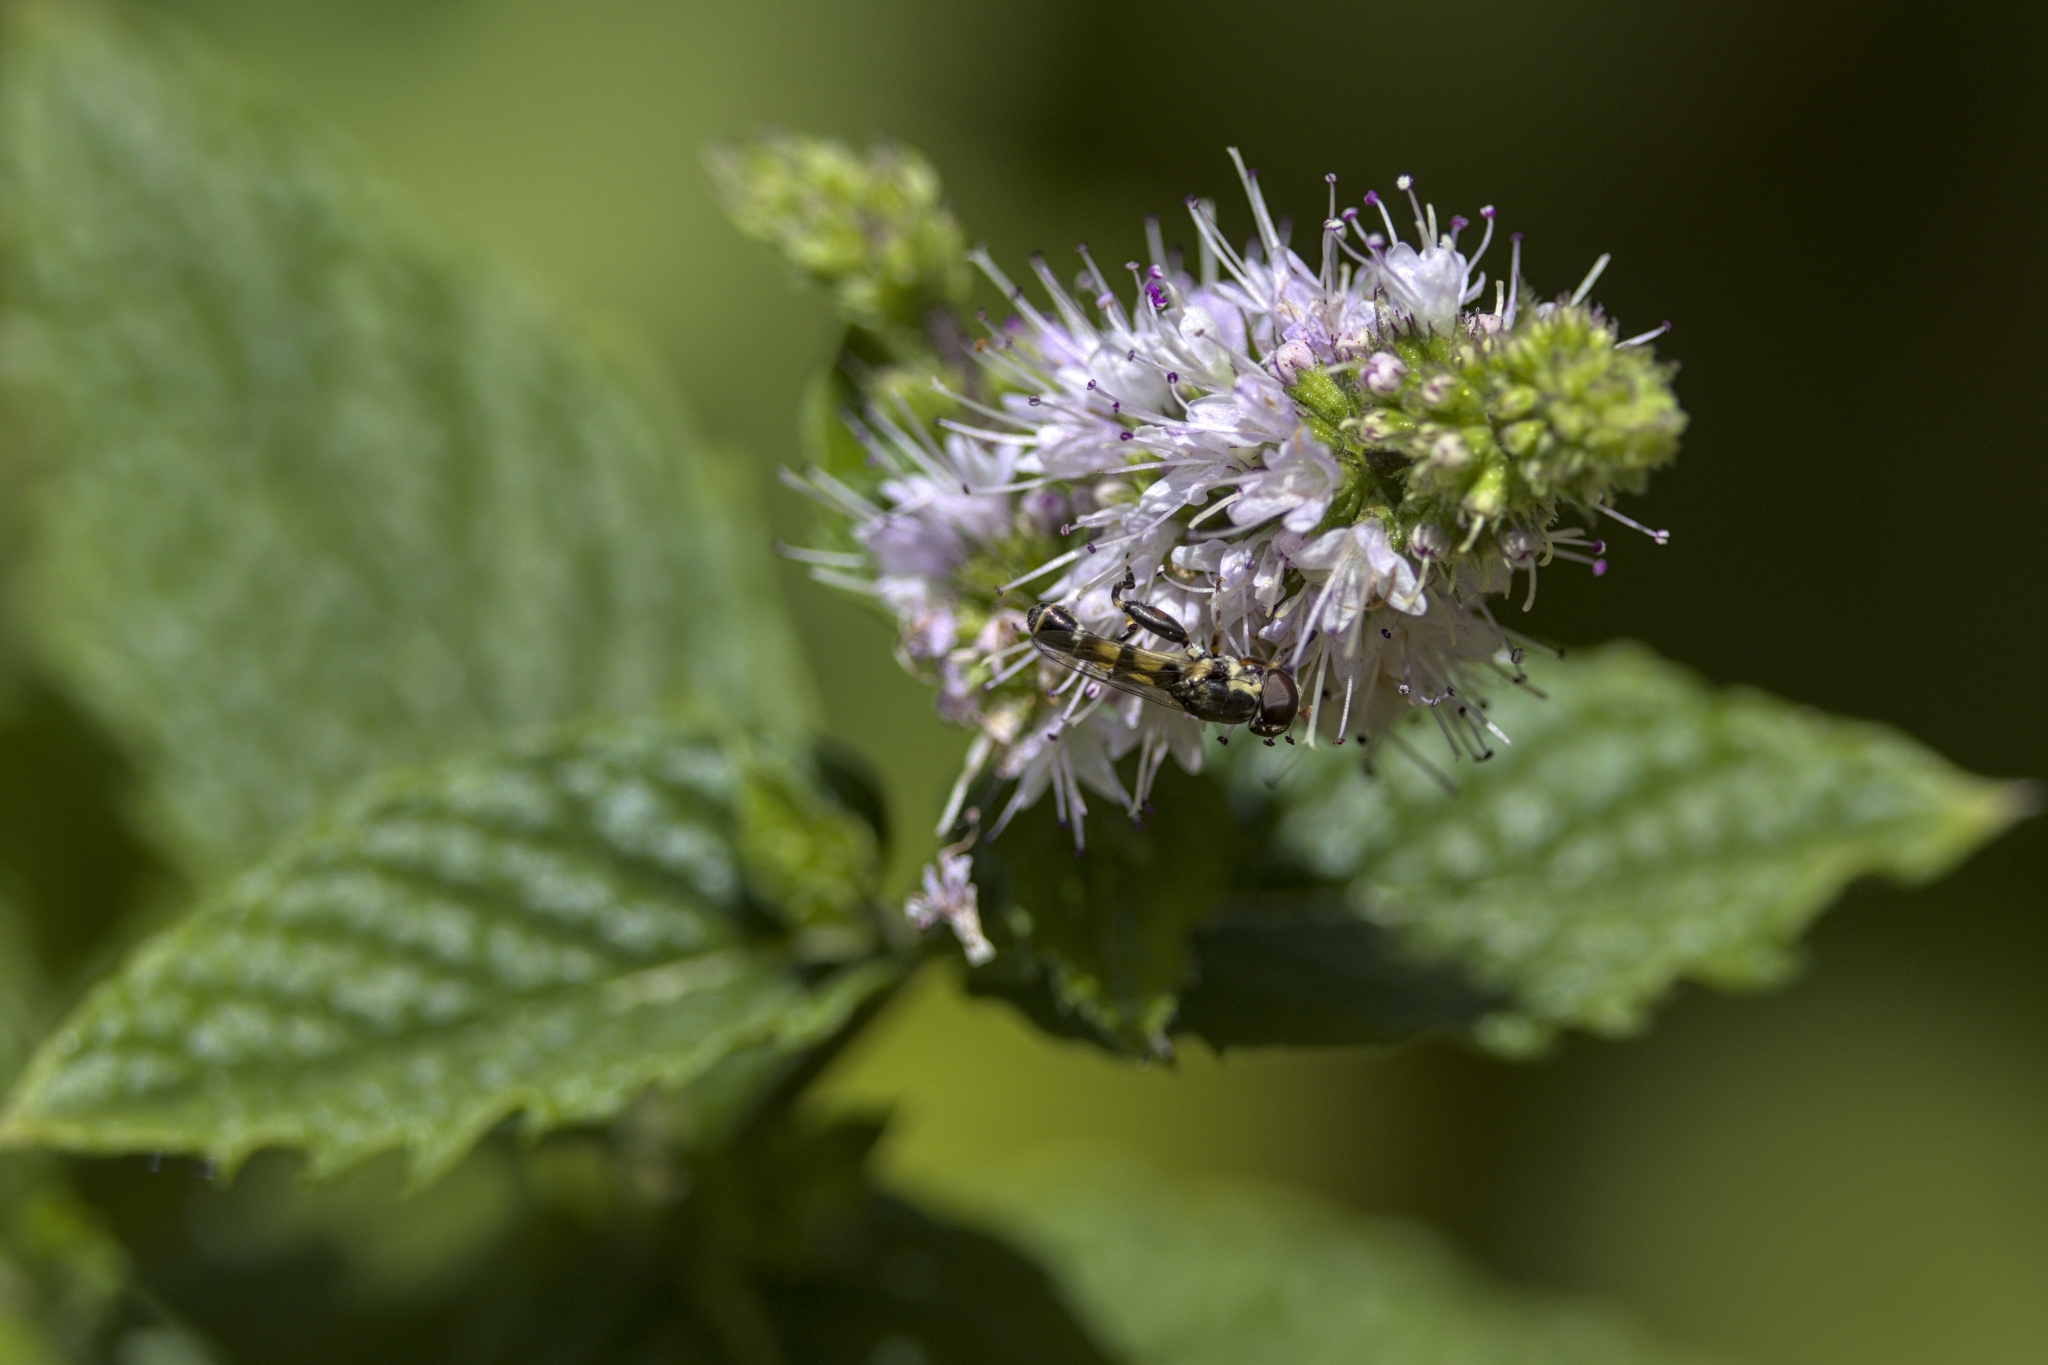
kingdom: Animalia
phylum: Arthropoda
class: Insecta
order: Diptera
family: Syrphidae
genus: Syritta
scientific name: Syritta pipiens
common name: Hover fly
